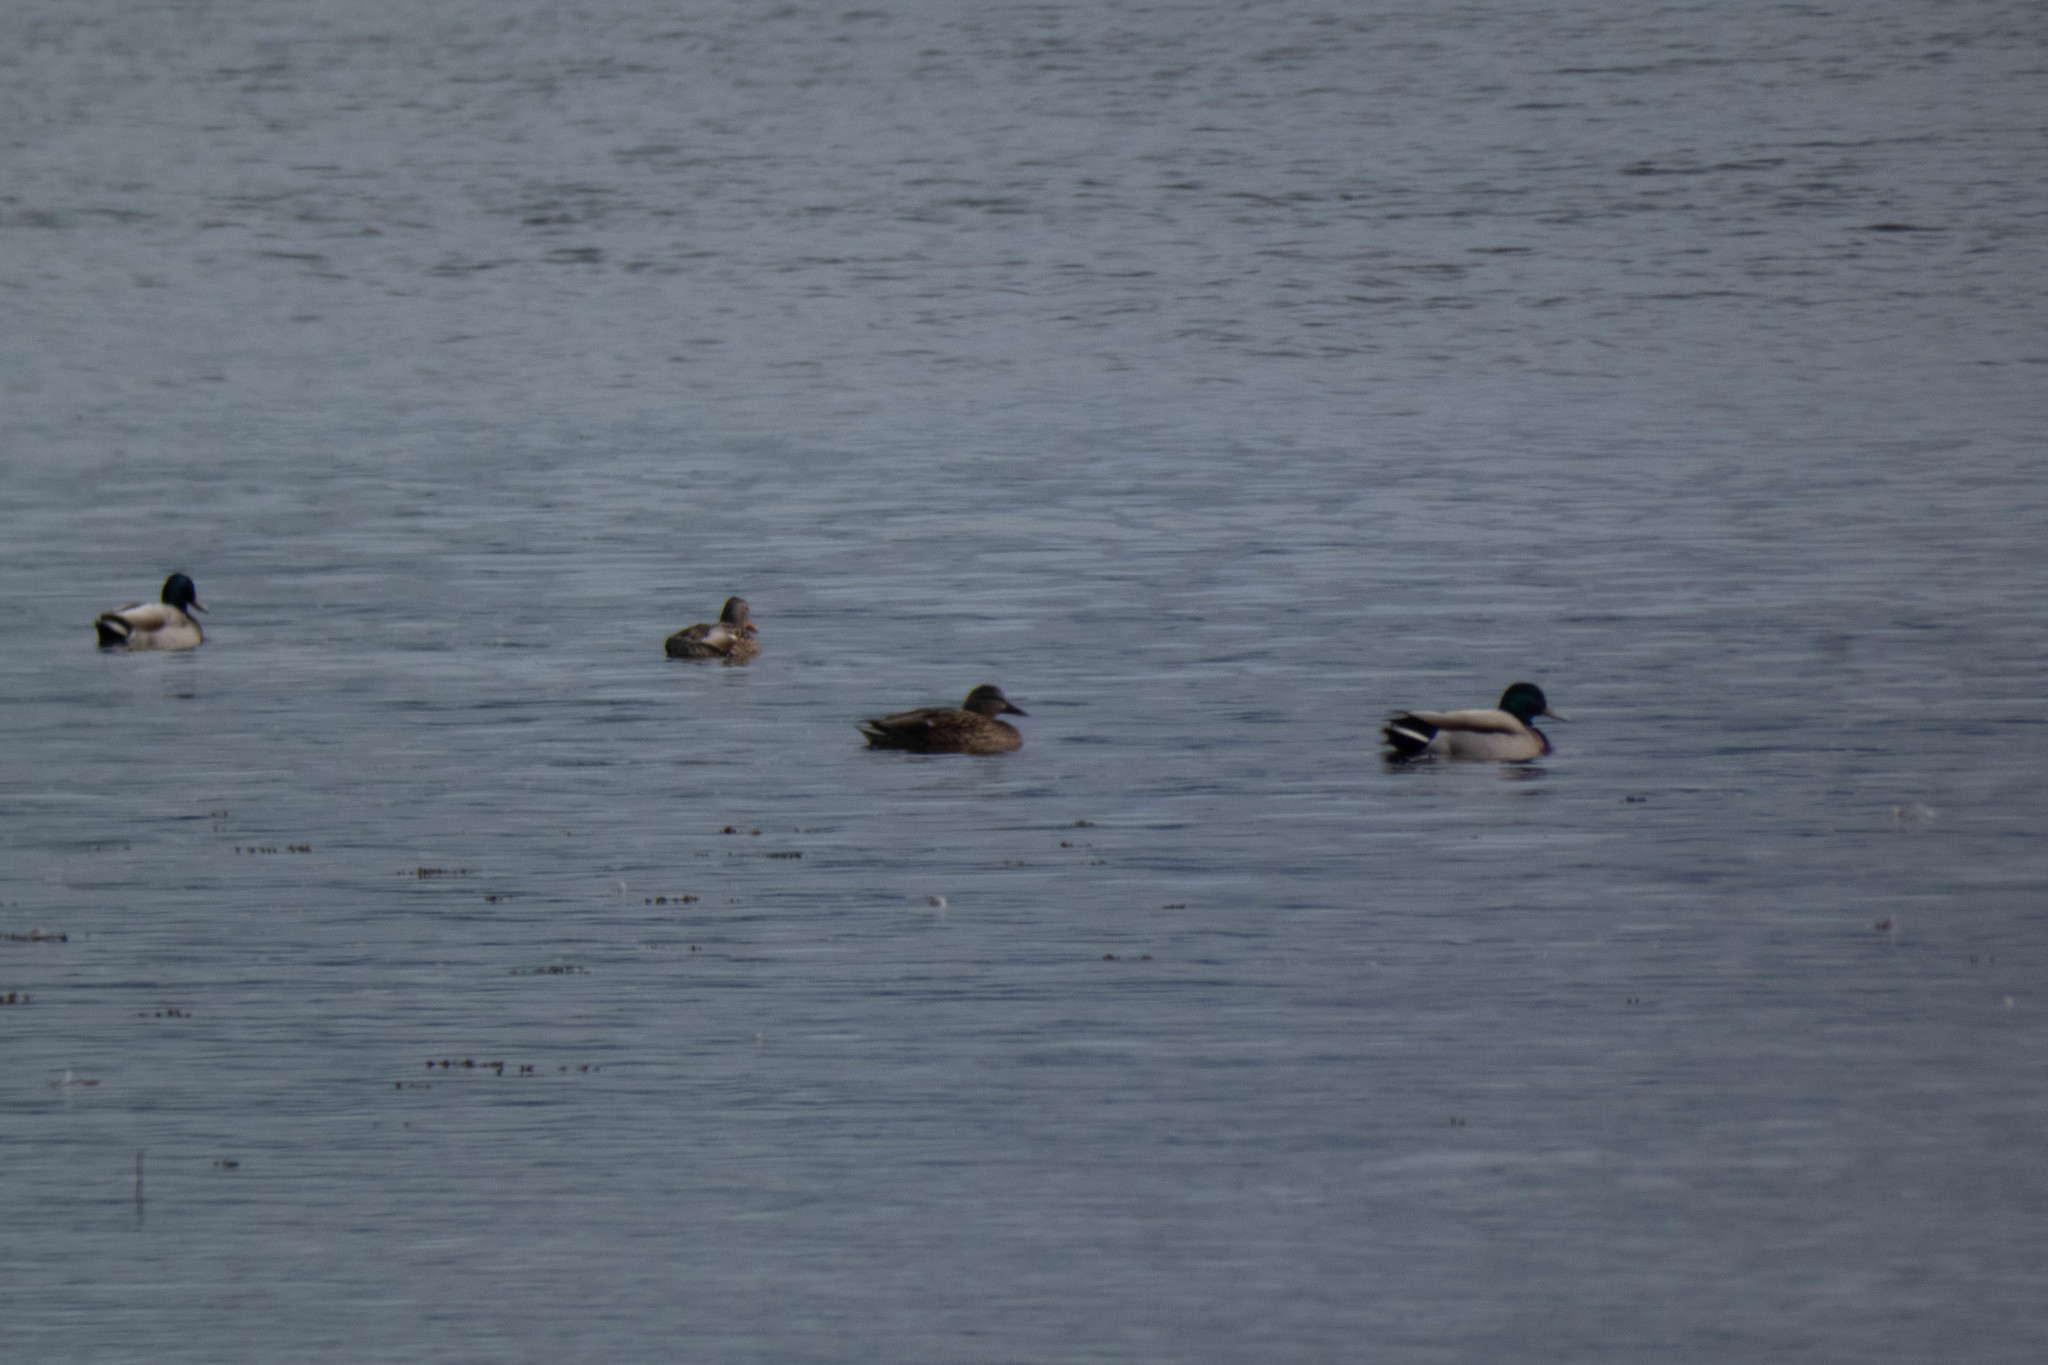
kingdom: Animalia
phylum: Chordata
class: Aves
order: Anseriformes
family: Anatidae
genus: Anas
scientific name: Anas platyrhynchos
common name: Mallard
